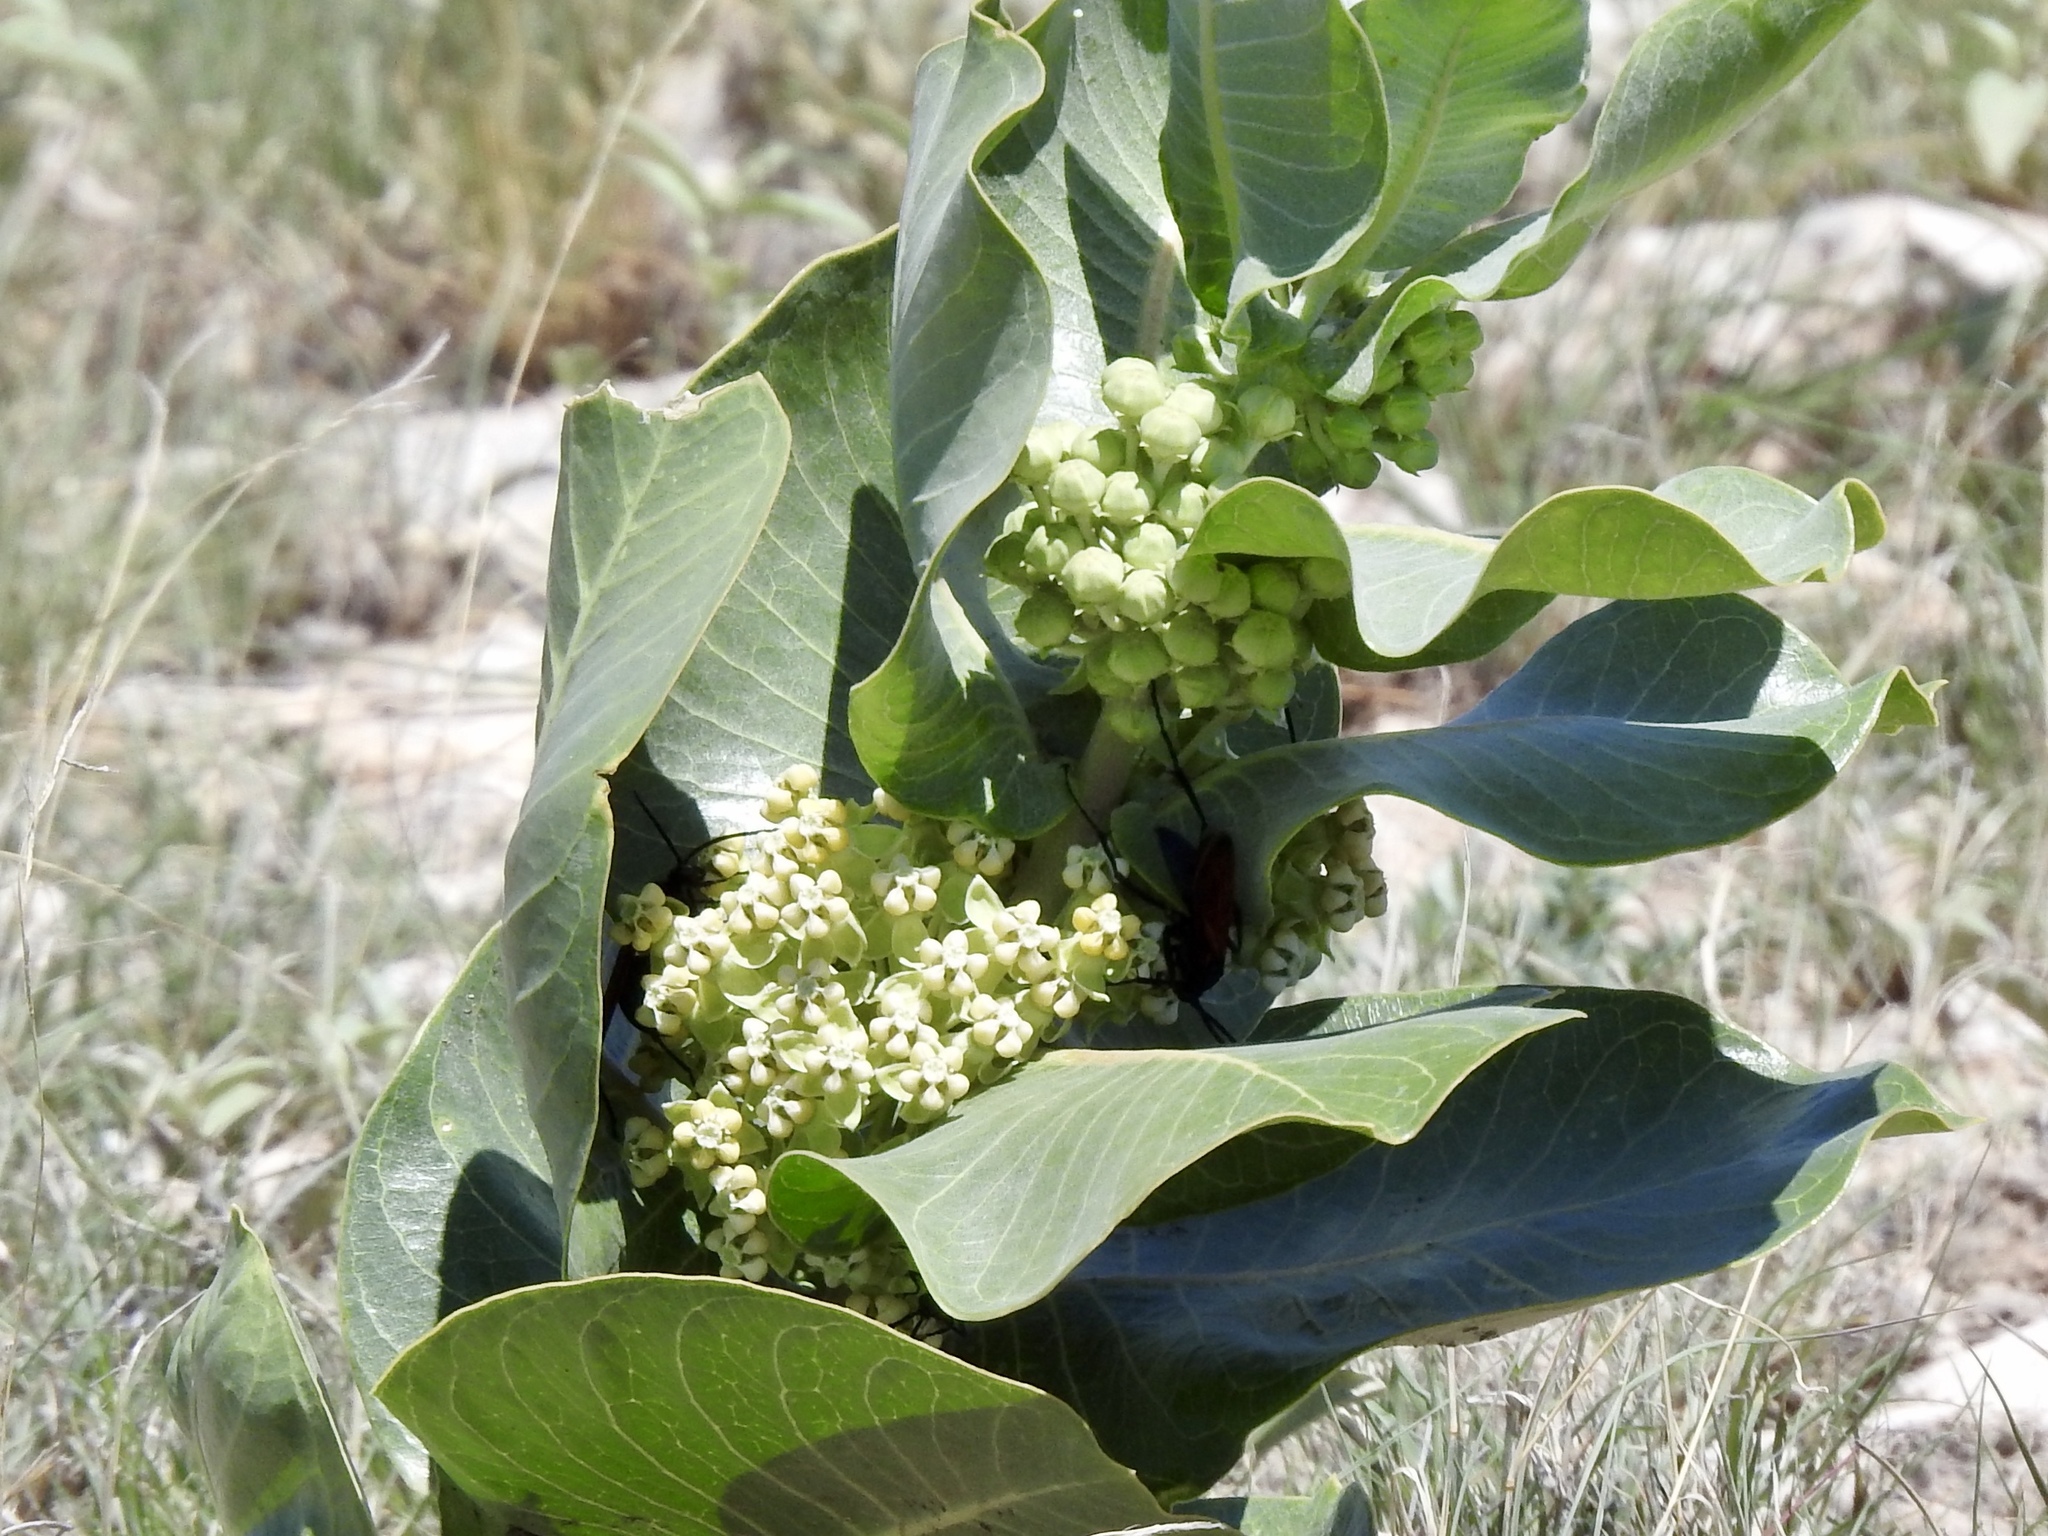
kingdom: Plantae
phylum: Tracheophyta
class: Magnoliopsida
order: Gentianales
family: Apocynaceae
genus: Asclepias
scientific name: Asclepias latifolia
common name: Broadleaf milkweed
